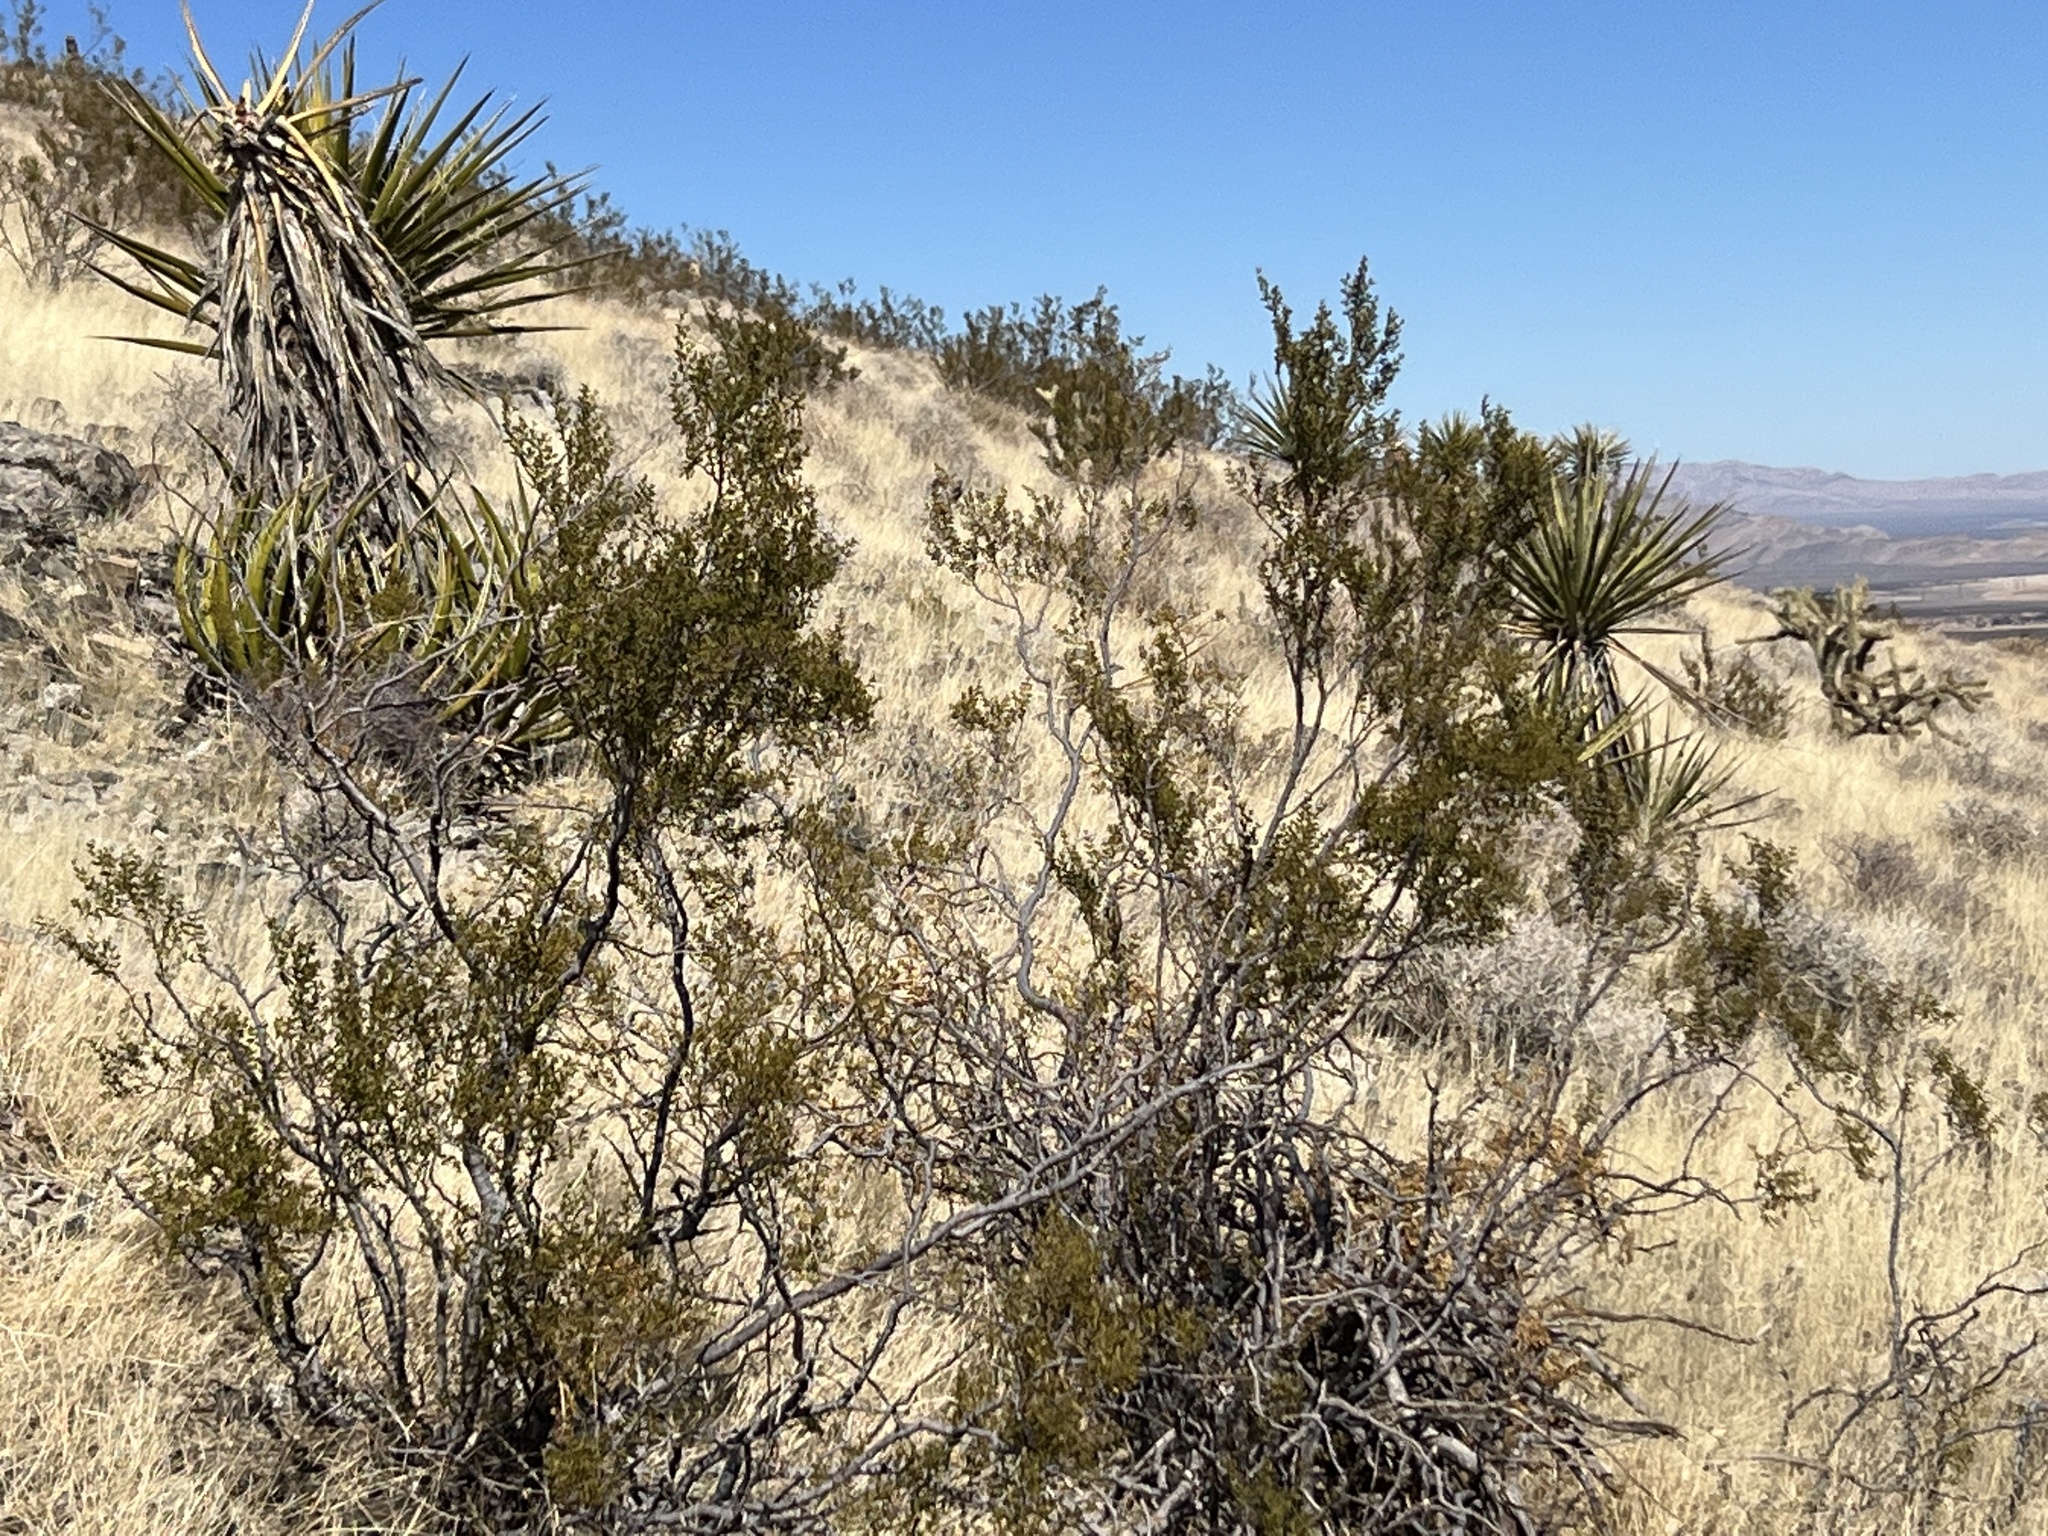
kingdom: Plantae
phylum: Tracheophyta
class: Magnoliopsida
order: Zygophyllales
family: Zygophyllaceae
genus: Larrea
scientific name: Larrea tridentata
